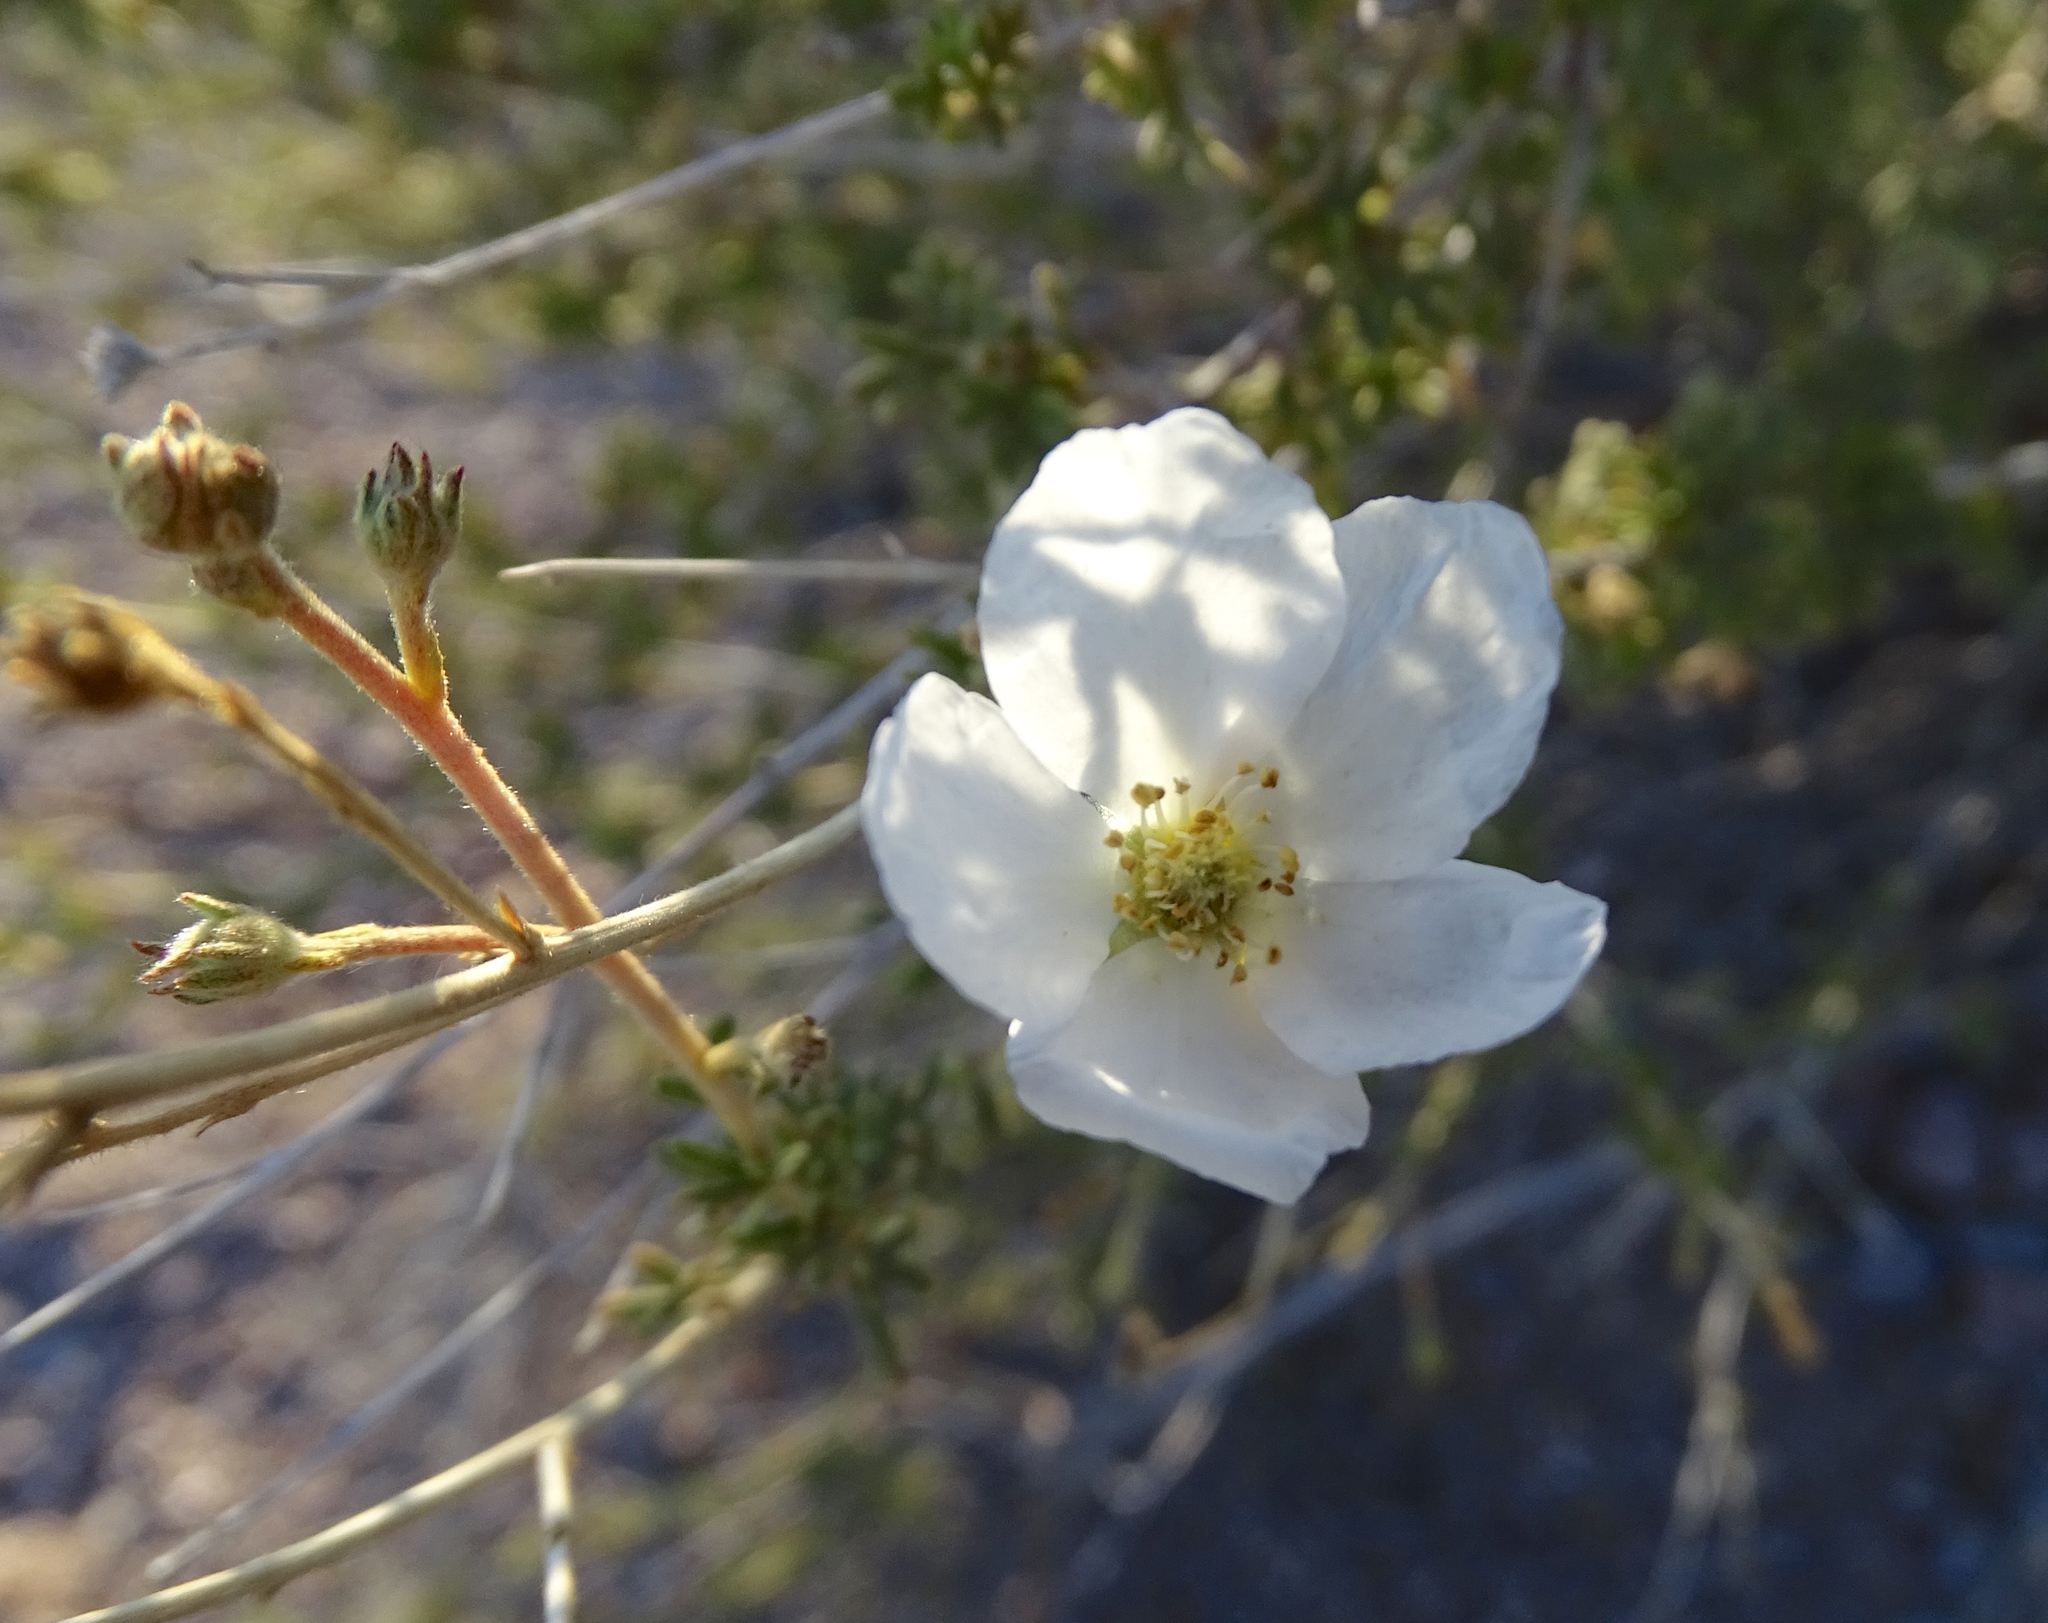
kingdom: Plantae
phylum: Tracheophyta
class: Magnoliopsida
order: Rosales
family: Rosaceae
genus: Fallugia
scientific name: Fallugia paradoxa
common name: Apache-plume
